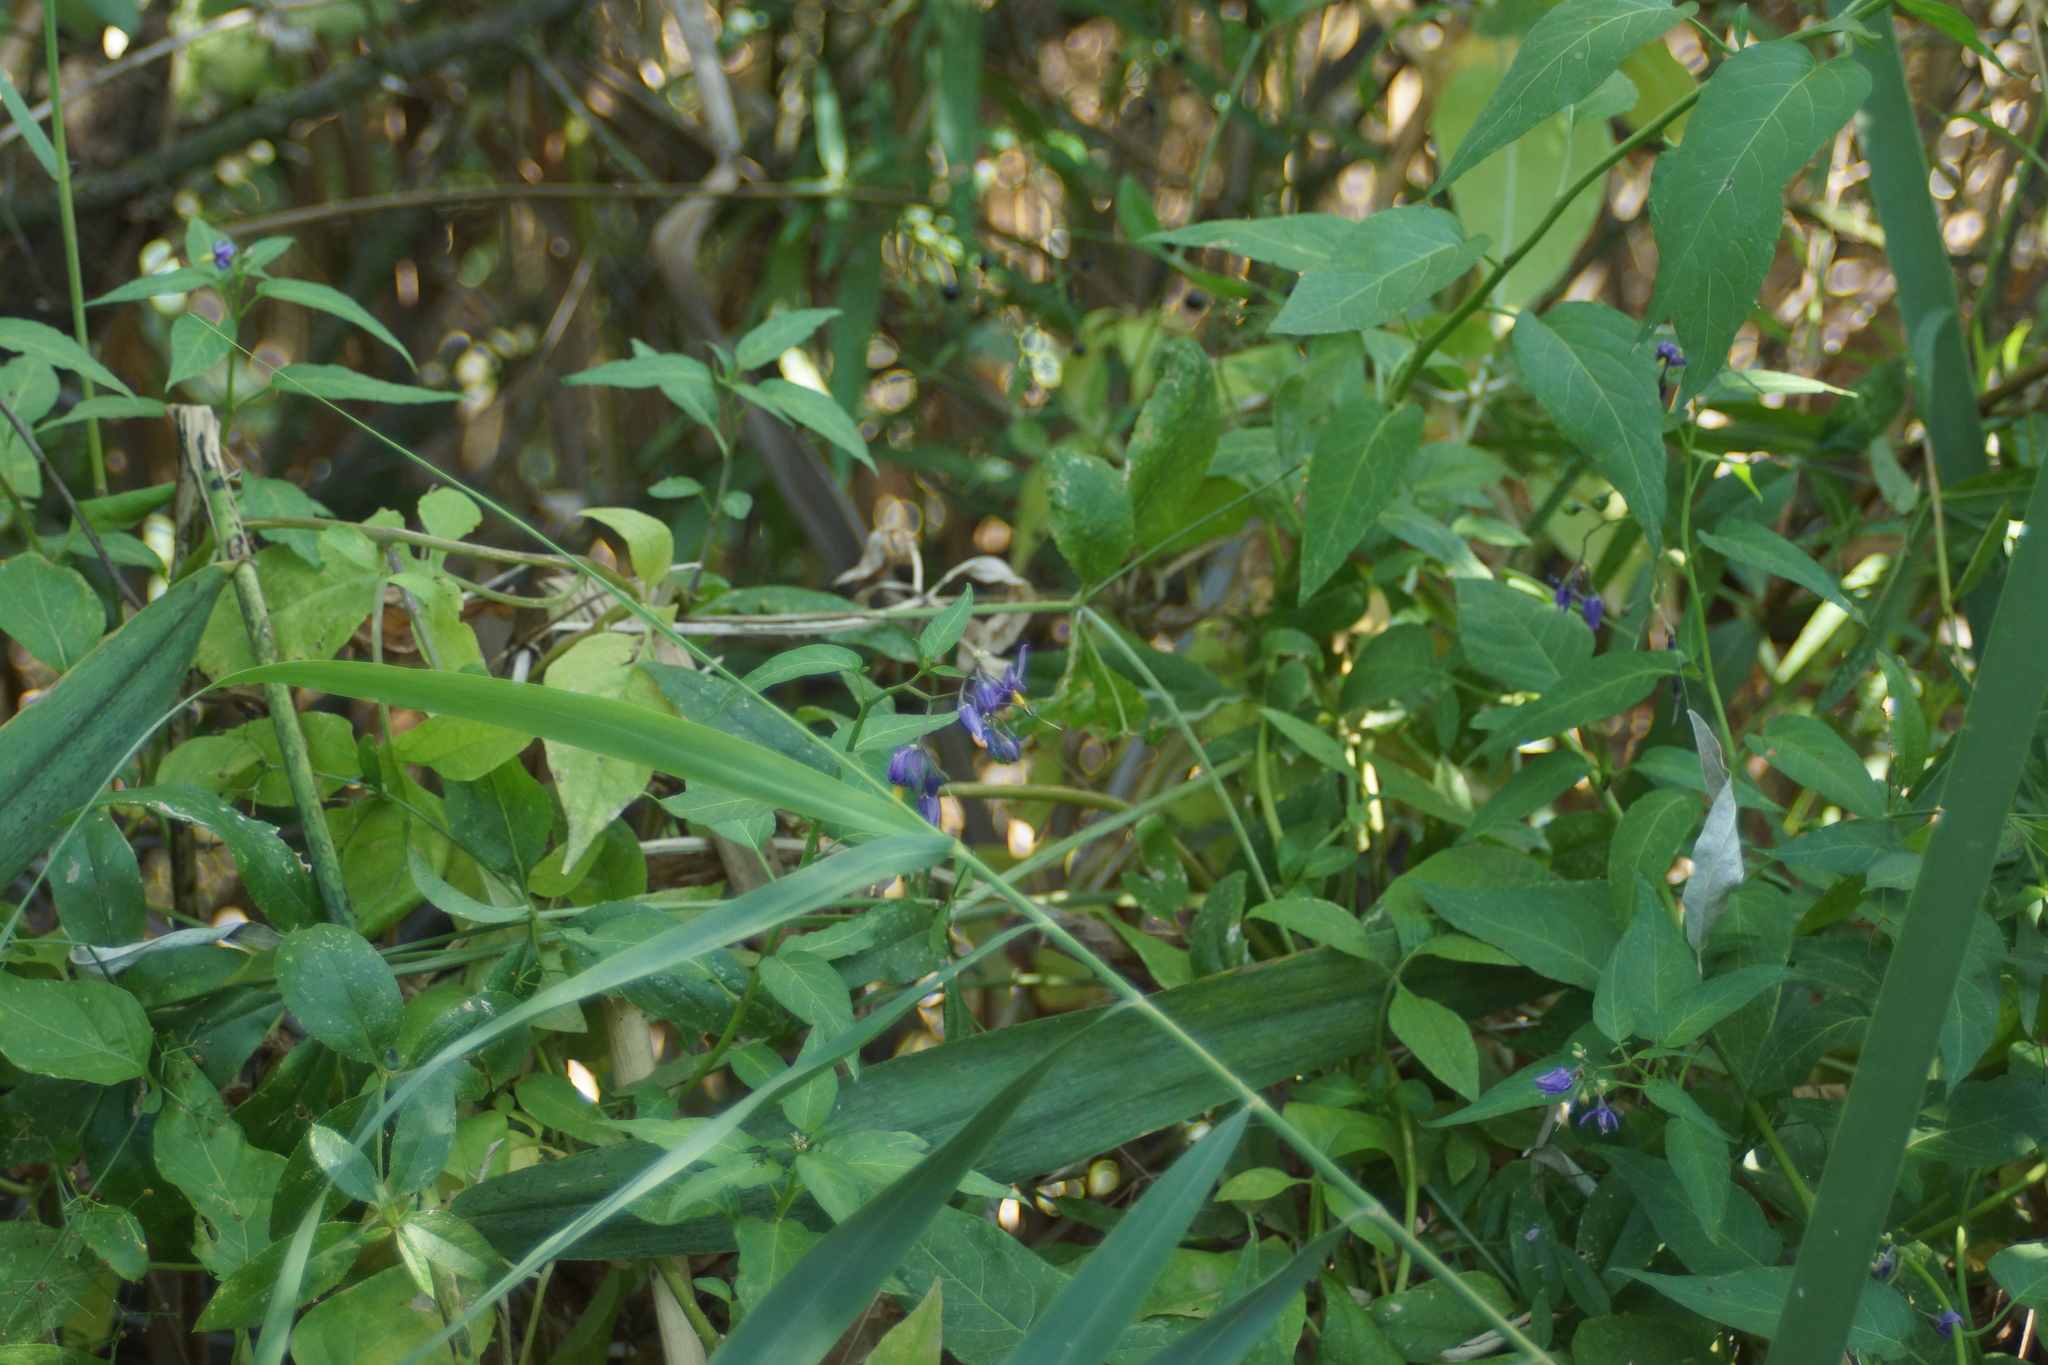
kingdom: Plantae
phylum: Tracheophyta
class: Magnoliopsida
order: Solanales
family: Solanaceae
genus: Solanum
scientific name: Solanum dulcamara
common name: Climbing nightshade
